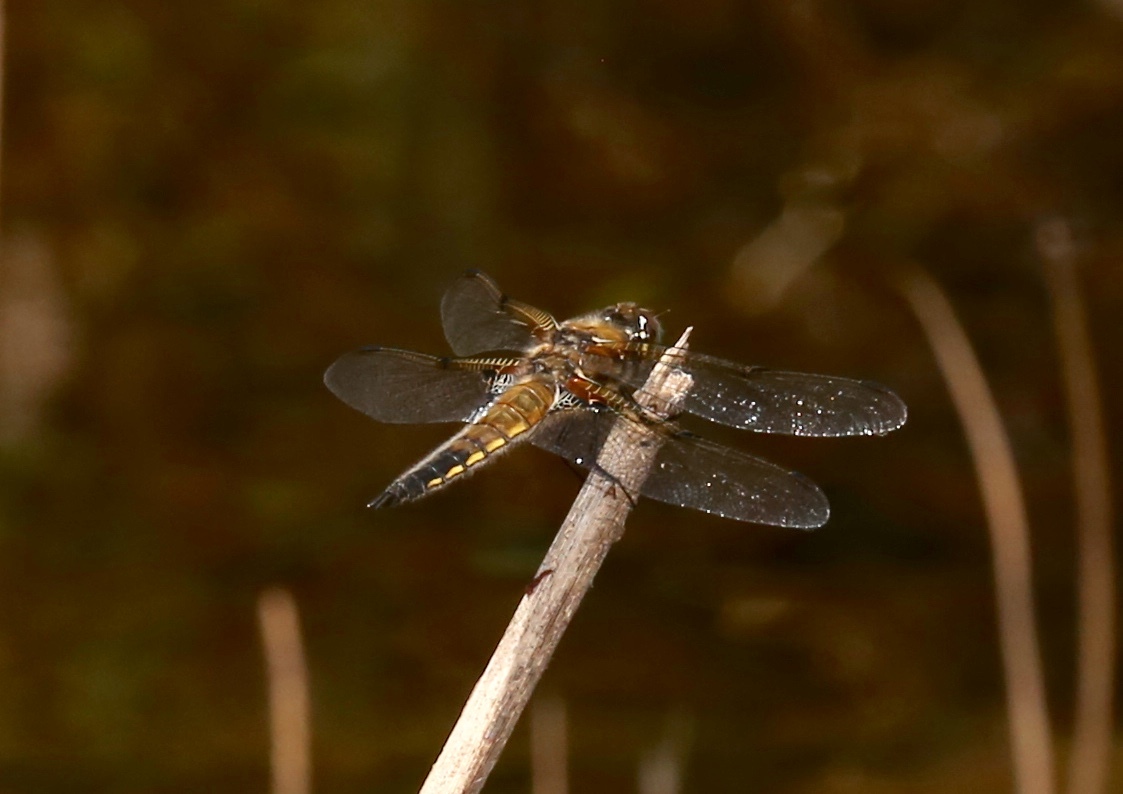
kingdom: Animalia
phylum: Arthropoda
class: Insecta
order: Odonata
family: Libellulidae
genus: Libellula
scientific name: Libellula quadrimaculata
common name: Four-spotted chaser
